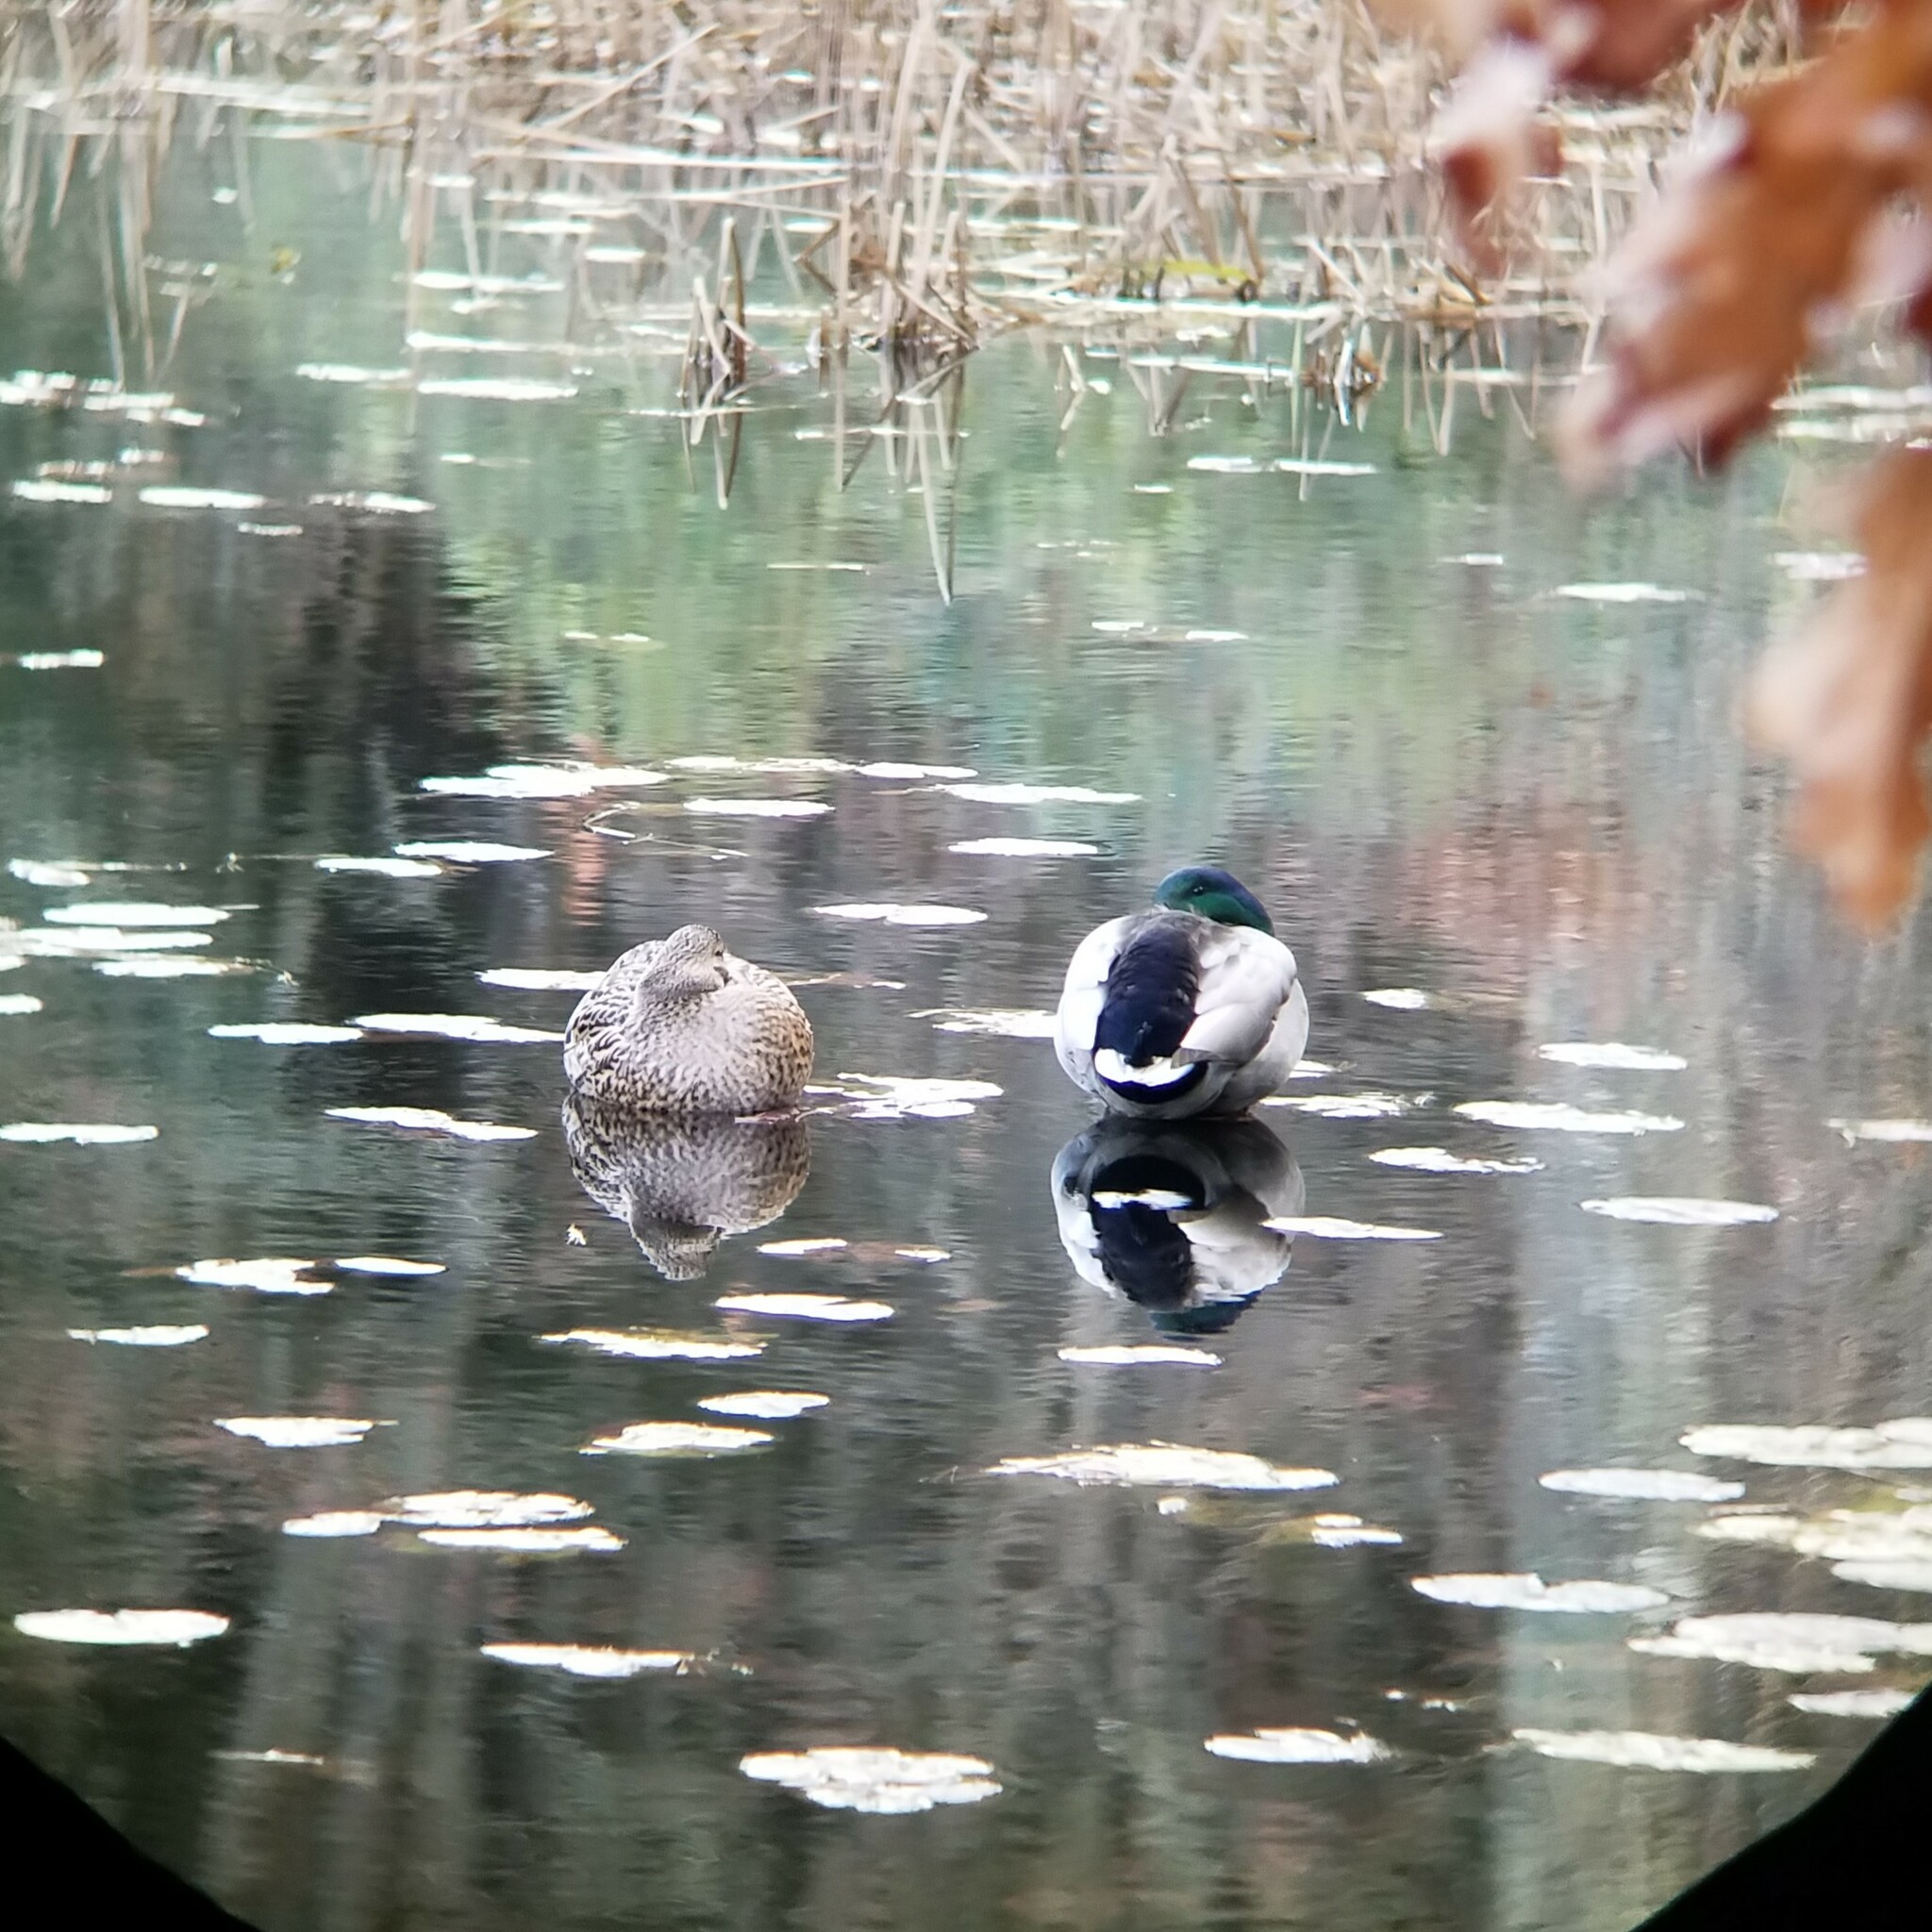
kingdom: Animalia
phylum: Chordata
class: Aves
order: Anseriformes
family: Anatidae
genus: Anas
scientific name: Anas platyrhynchos
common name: Mallard
